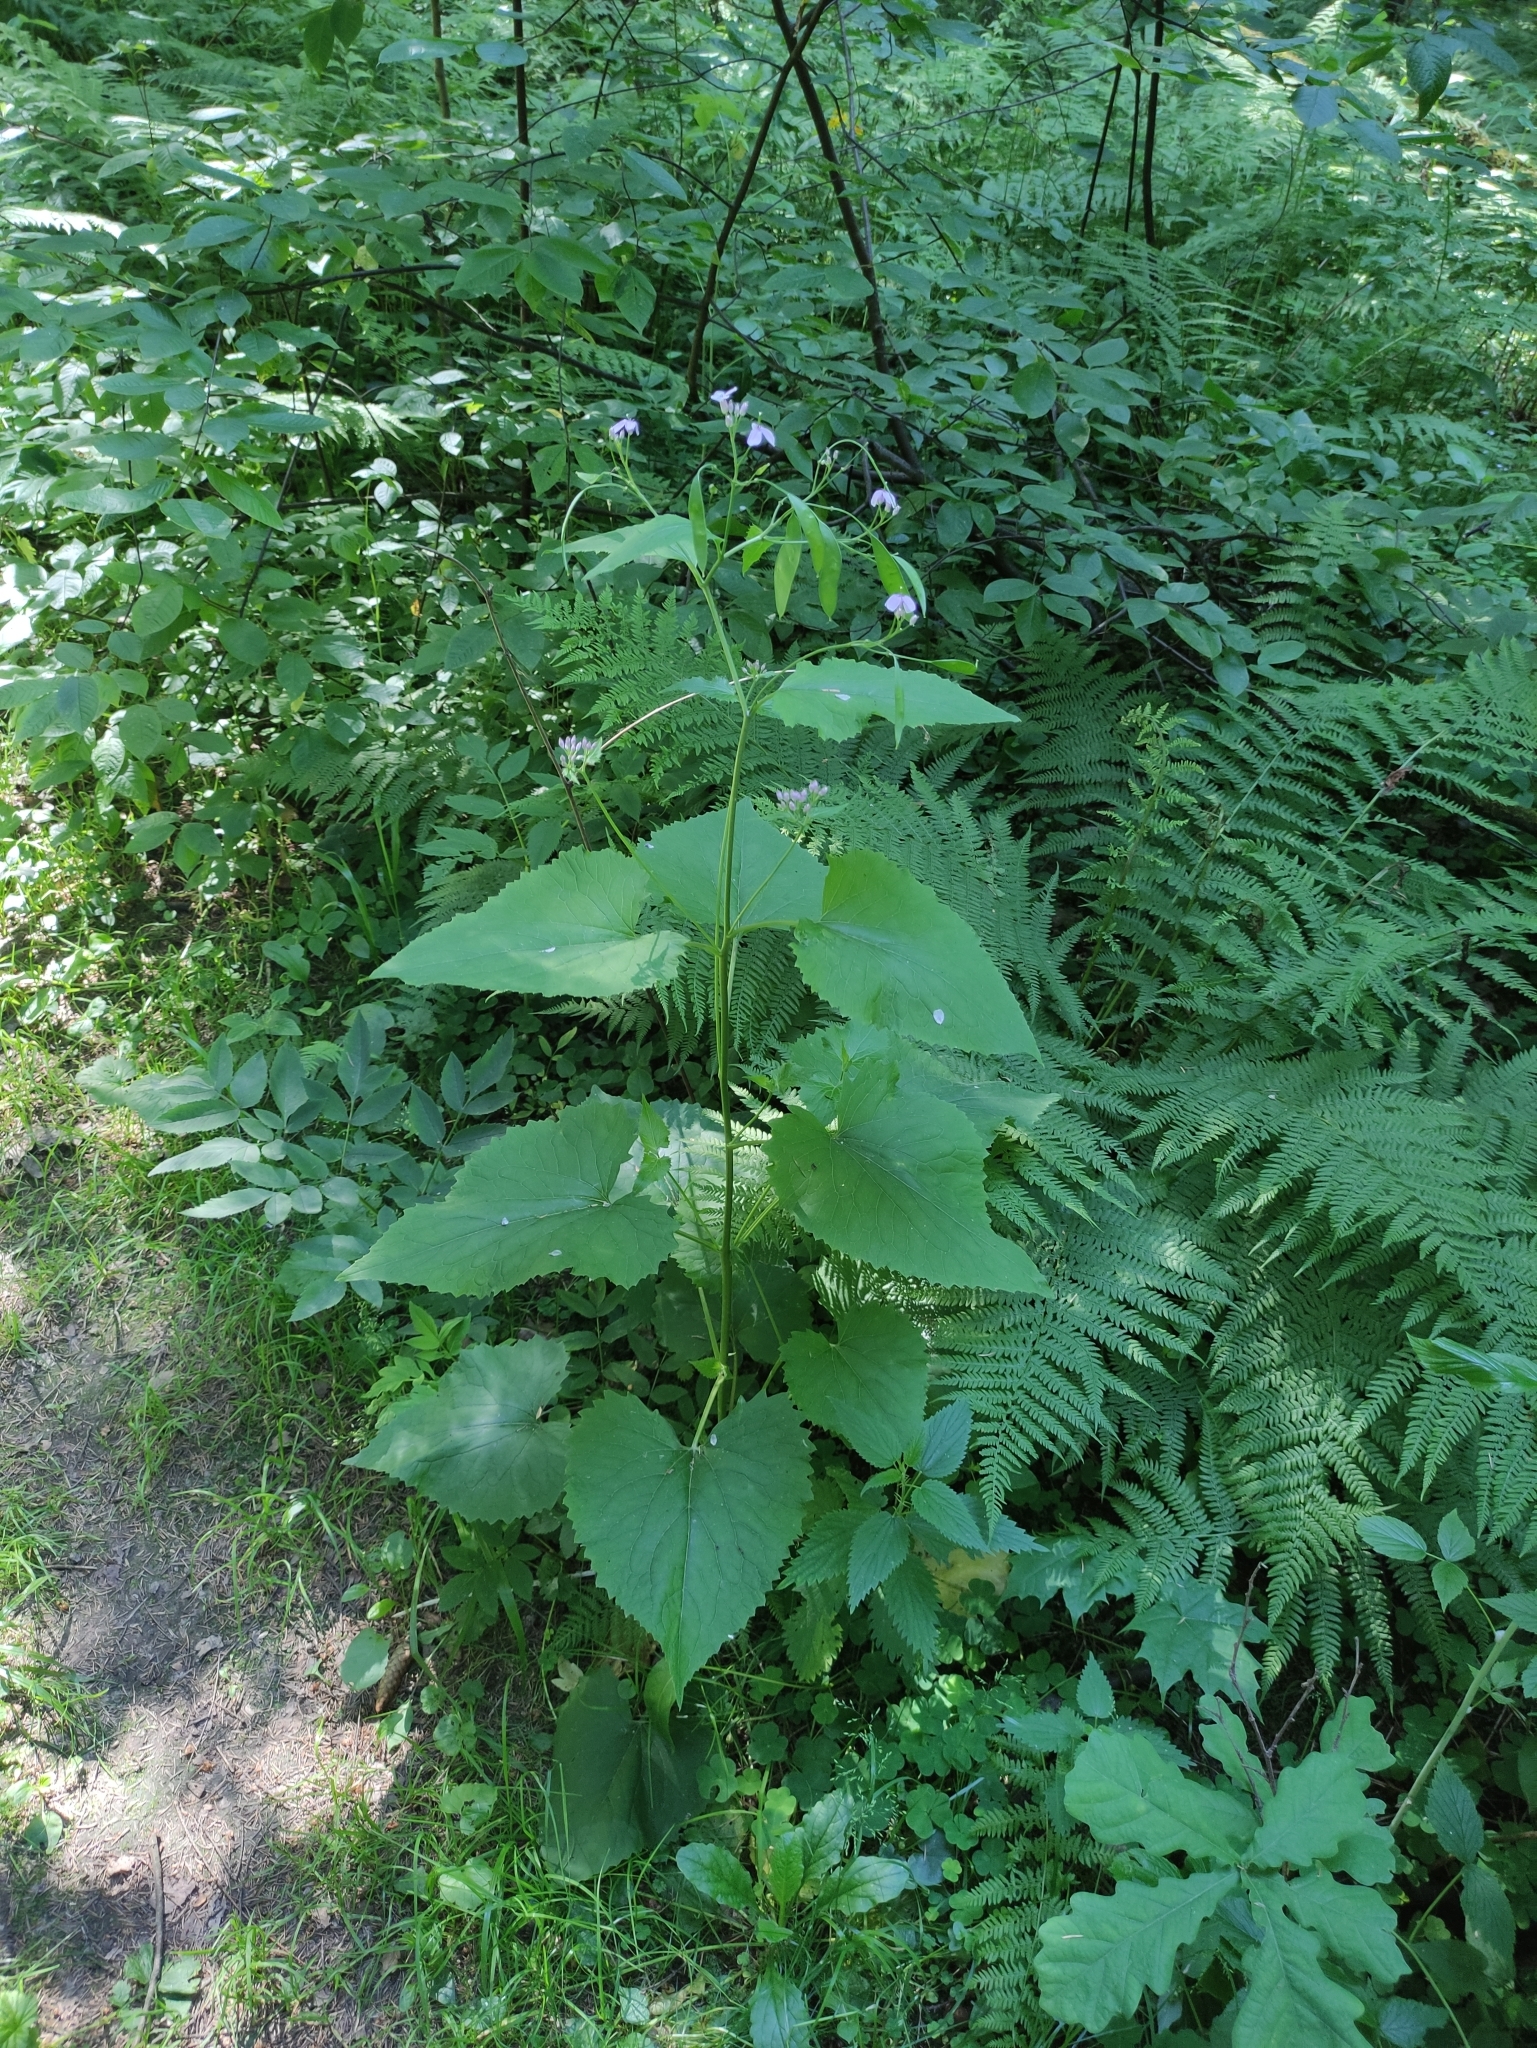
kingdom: Plantae
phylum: Tracheophyta
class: Magnoliopsida
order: Brassicales
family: Brassicaceae
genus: Lunaria
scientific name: Lunaria rediviva
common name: Perennial honesty
